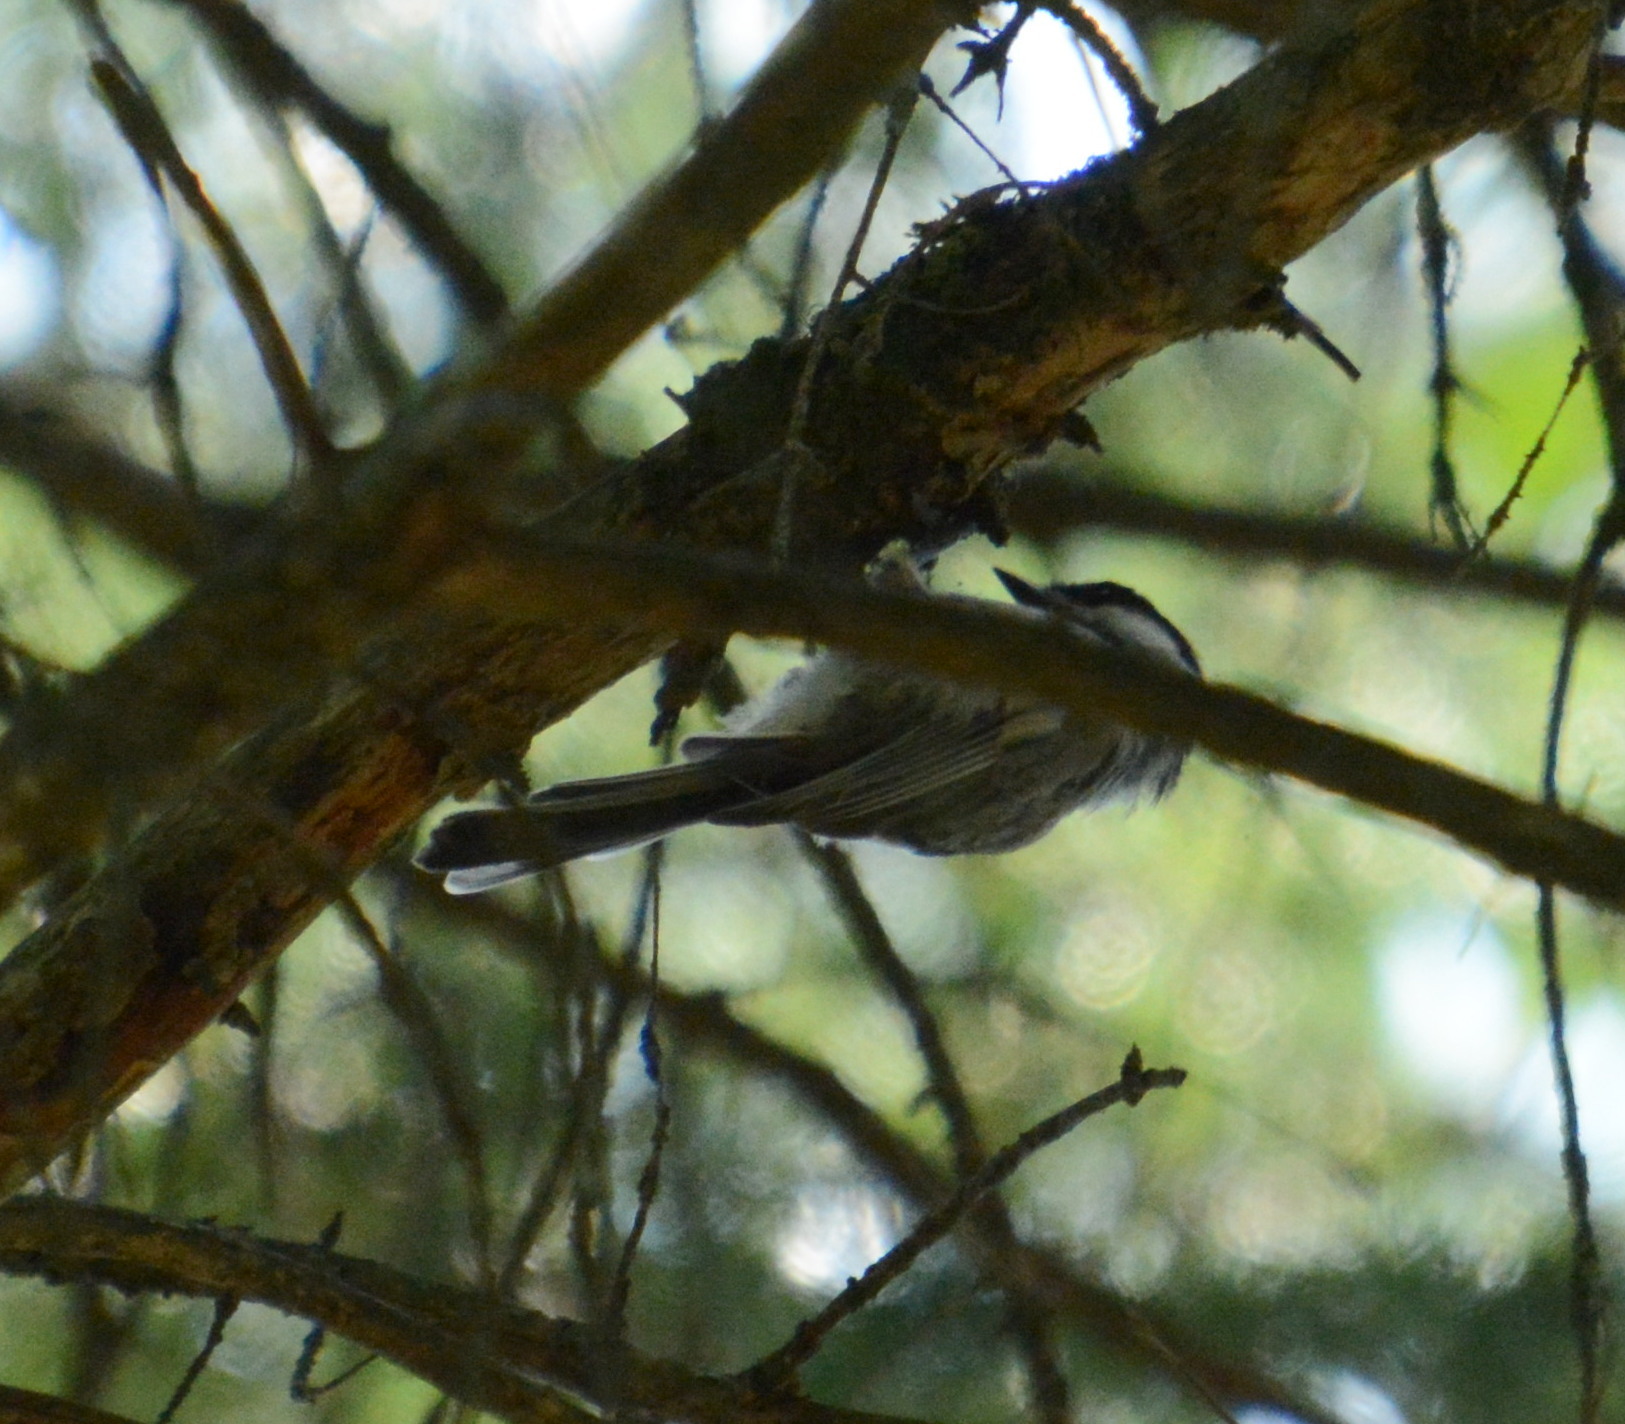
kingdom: Animalia
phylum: Chordata
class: Aves
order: Passeriformes
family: Paridae
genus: Poecile
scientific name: Poecile atricapillus
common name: Black-capped chickadee
